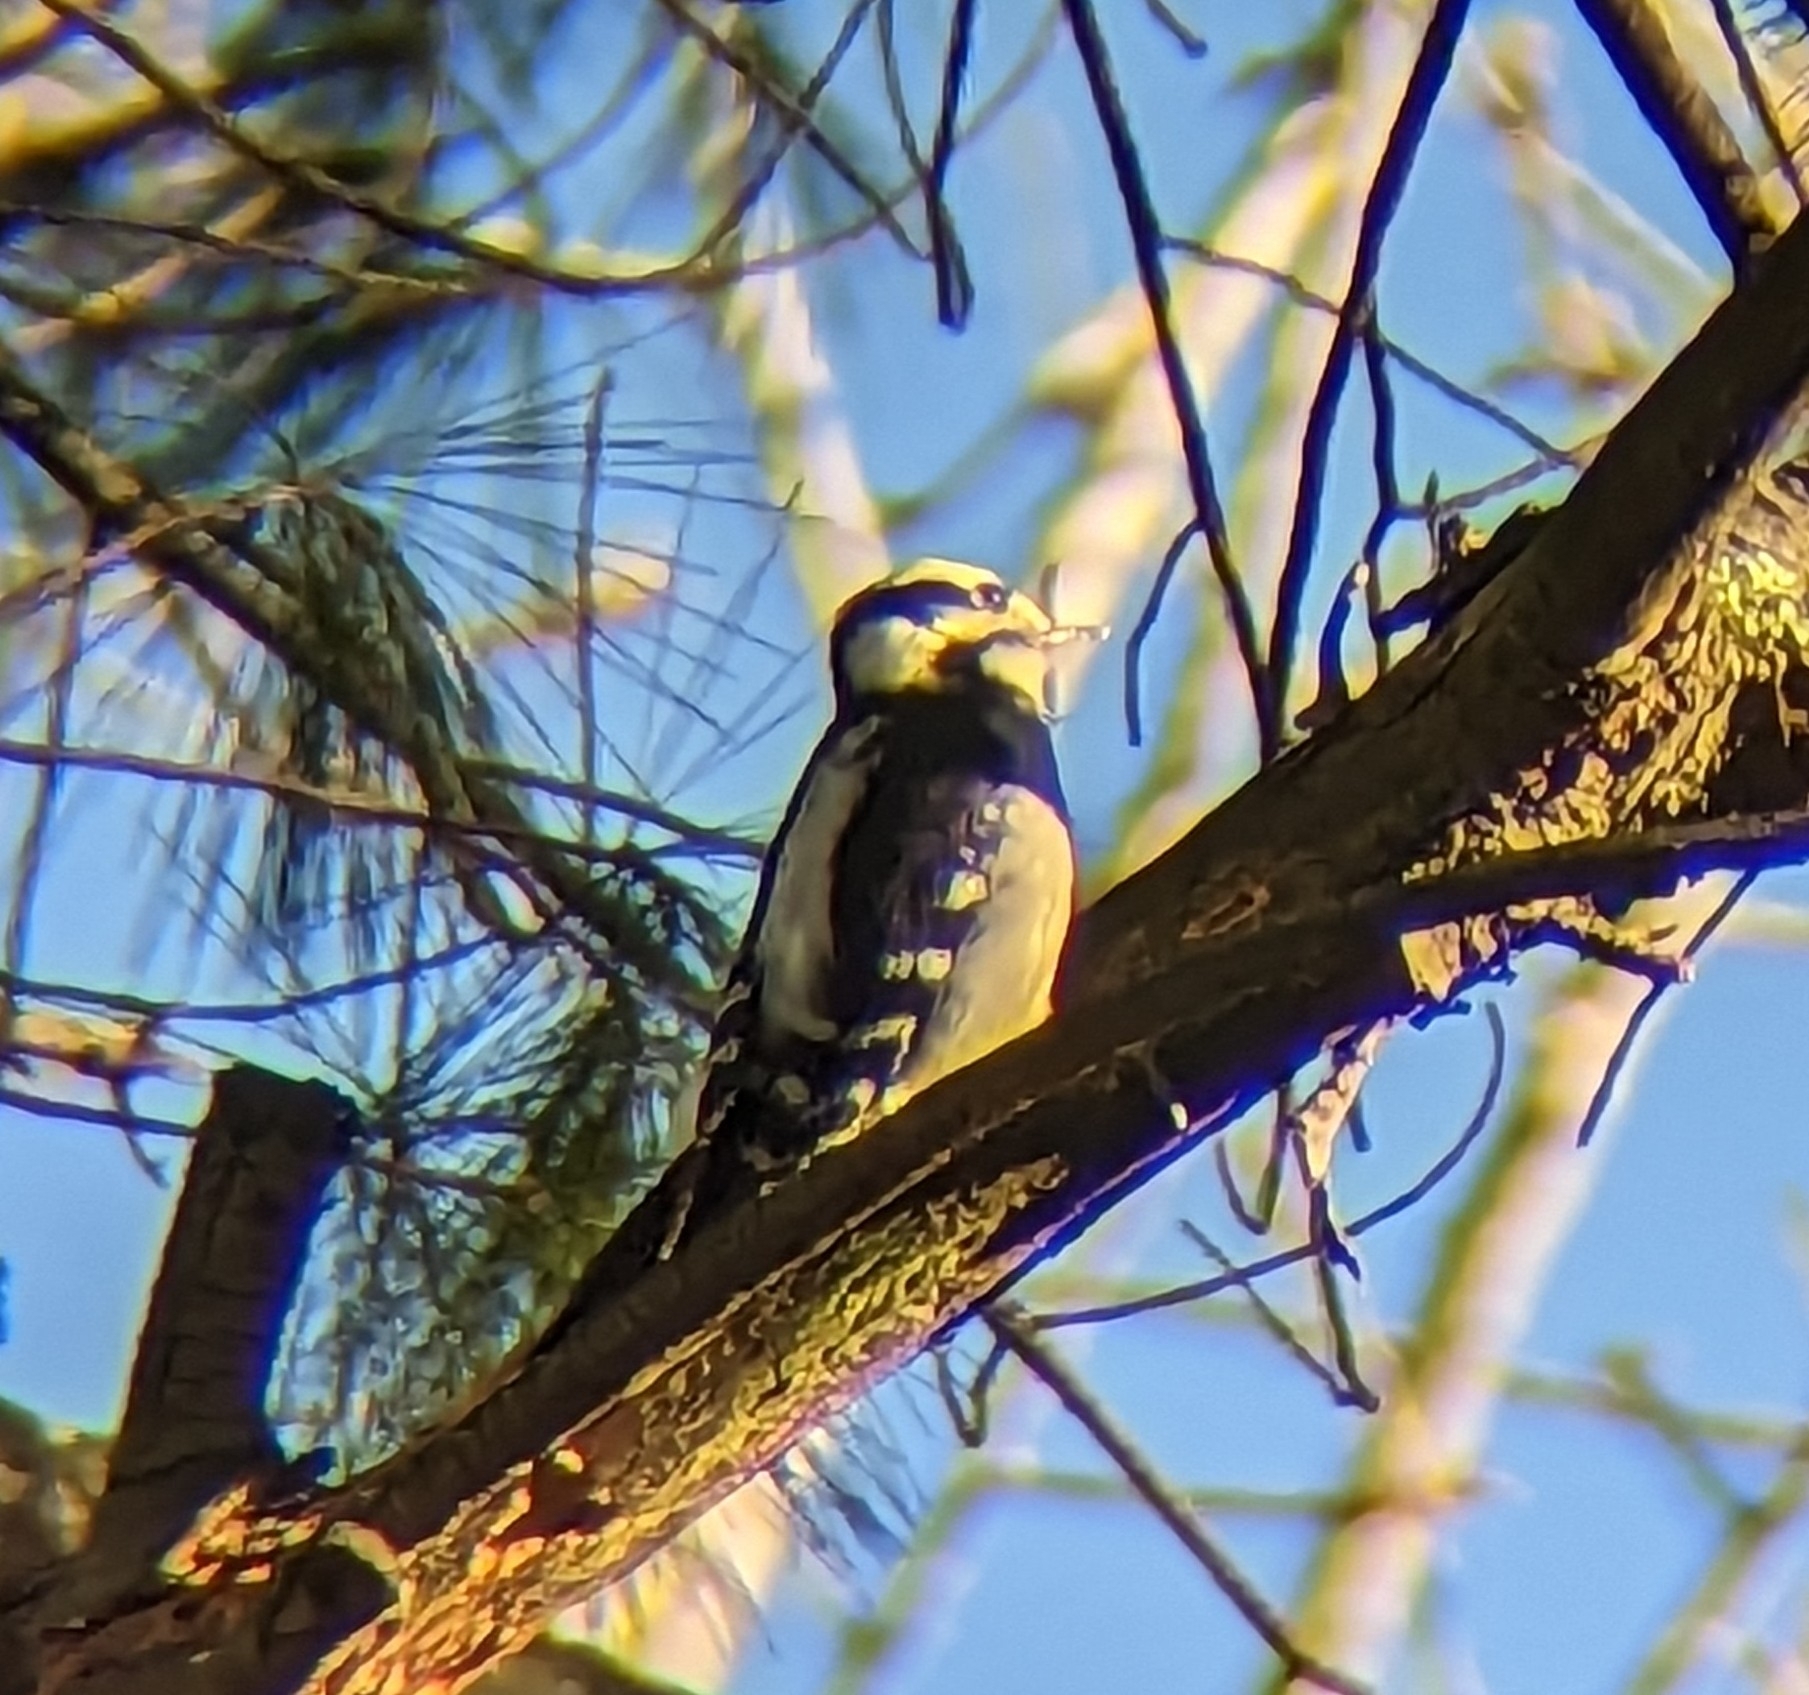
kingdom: Animalia
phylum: Chordata
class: Aves
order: Piciformes
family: Picidae
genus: Dryobates
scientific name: Dryobates pubescens
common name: Downy woodpecker
